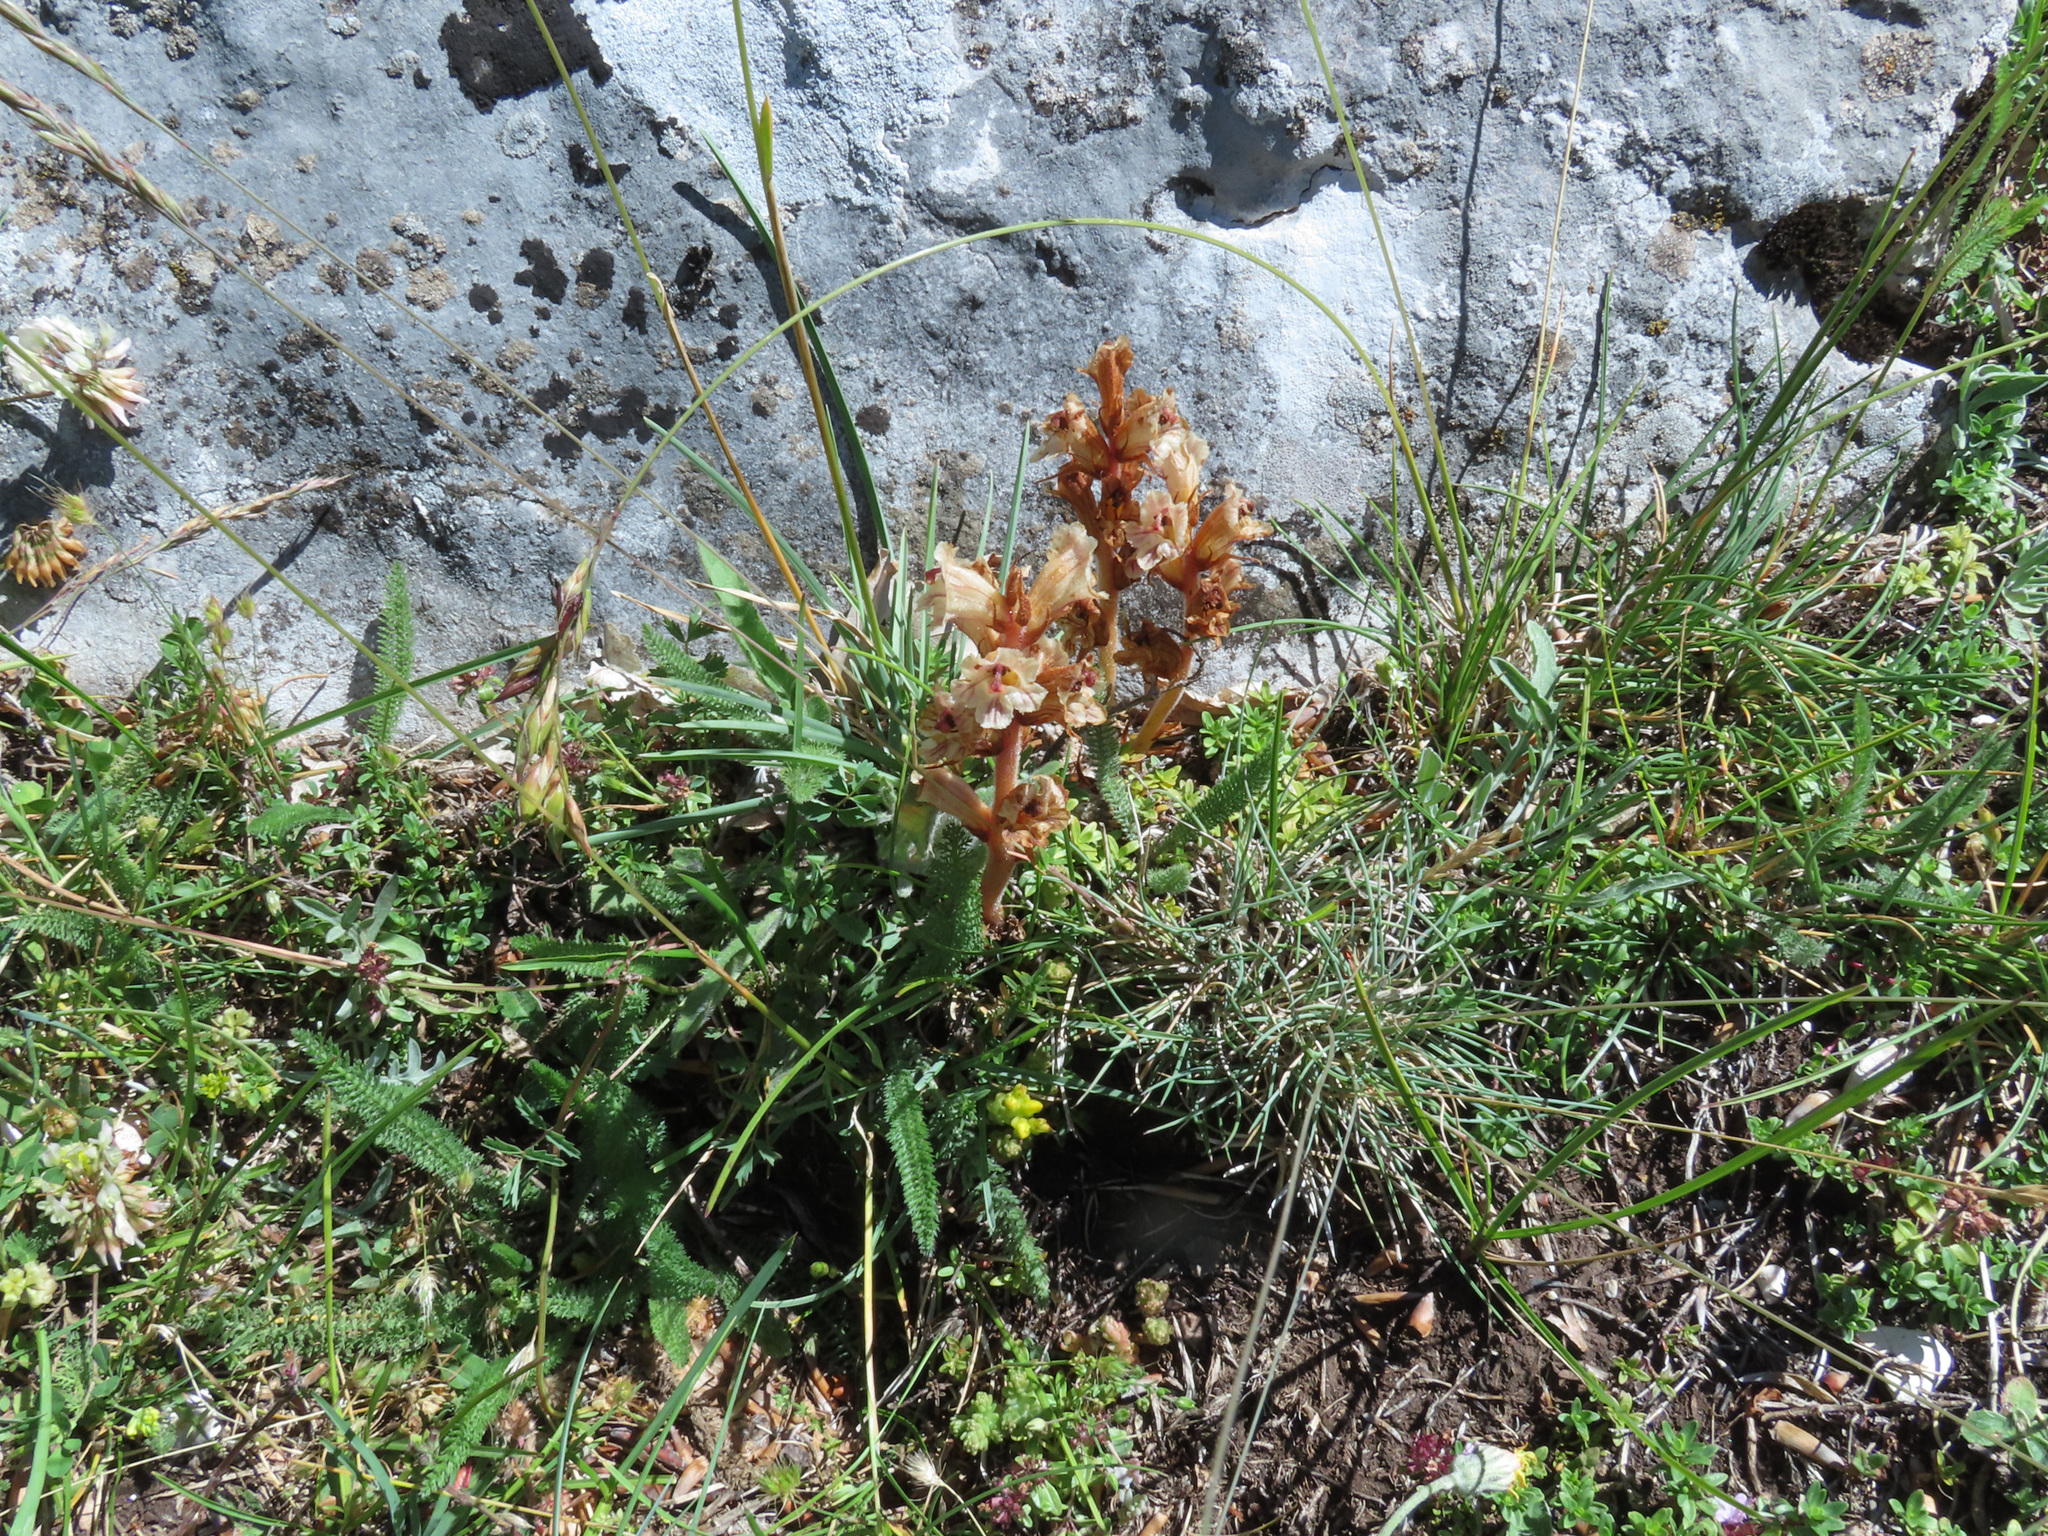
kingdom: Plantae
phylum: Tracheophyta
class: Magnoliopsida
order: Lamiales
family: Orobanchaceae
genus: Orobanche
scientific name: Orobanche alba
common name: Thyme broomrape
